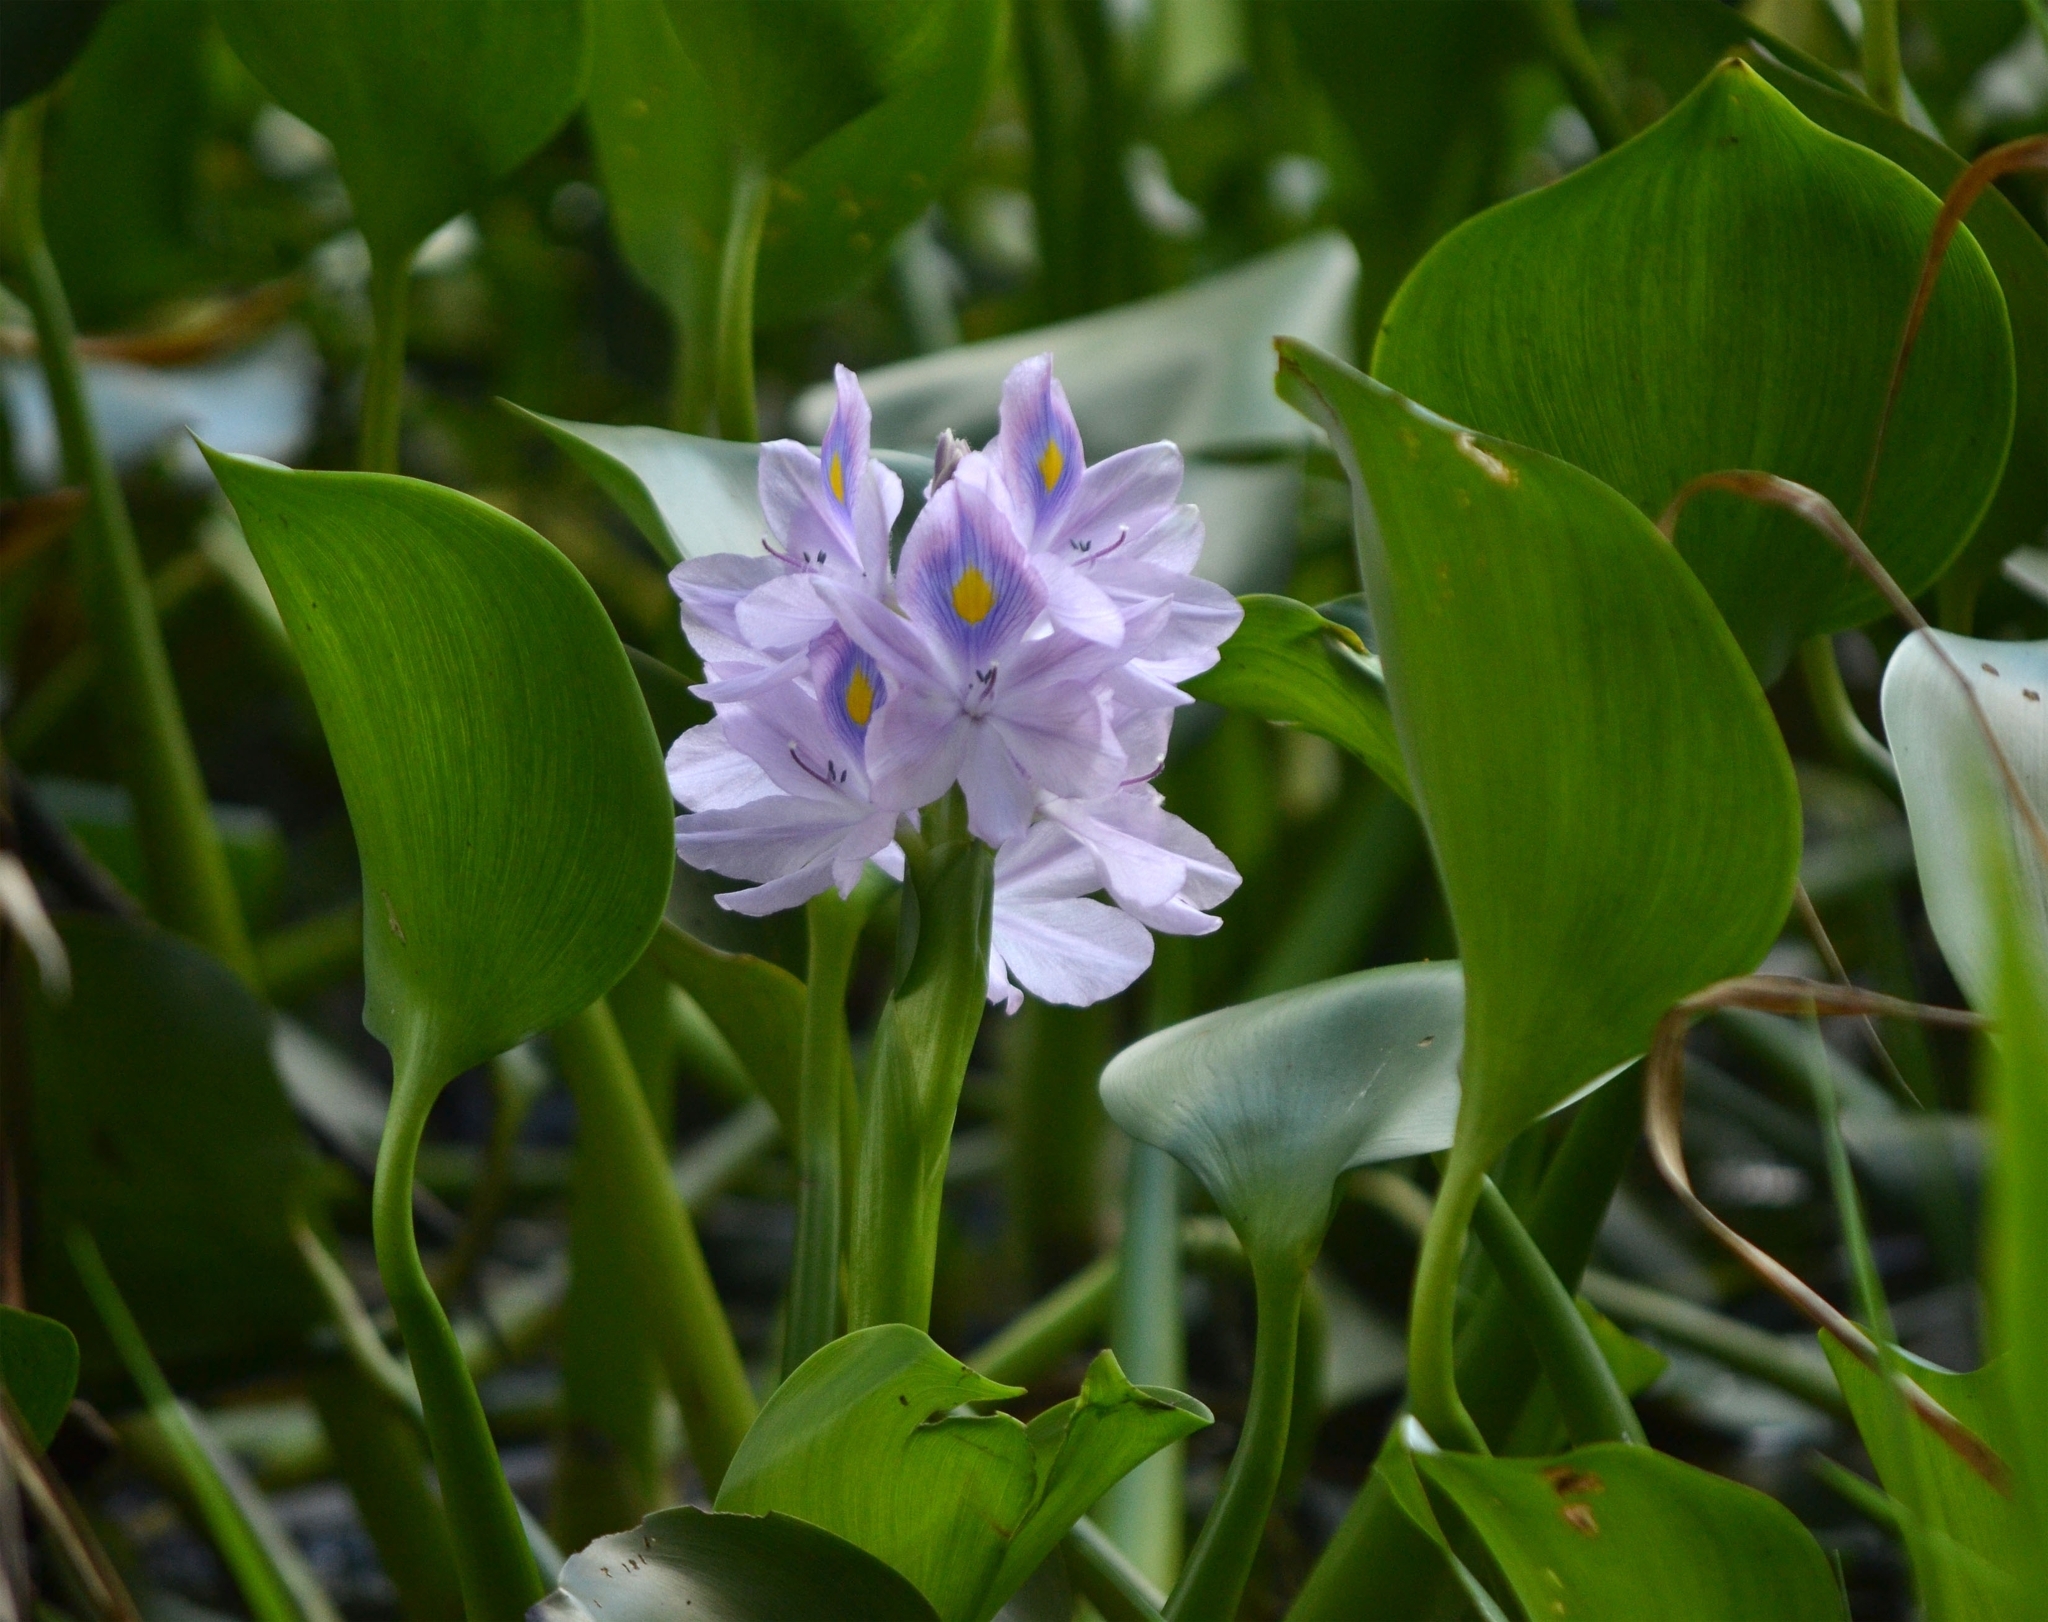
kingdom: Plantae
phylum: Tracheophyta
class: Liliopsida
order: Commelinales
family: Pontederiaceae
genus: Pontederia
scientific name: Pontederia crassipes
